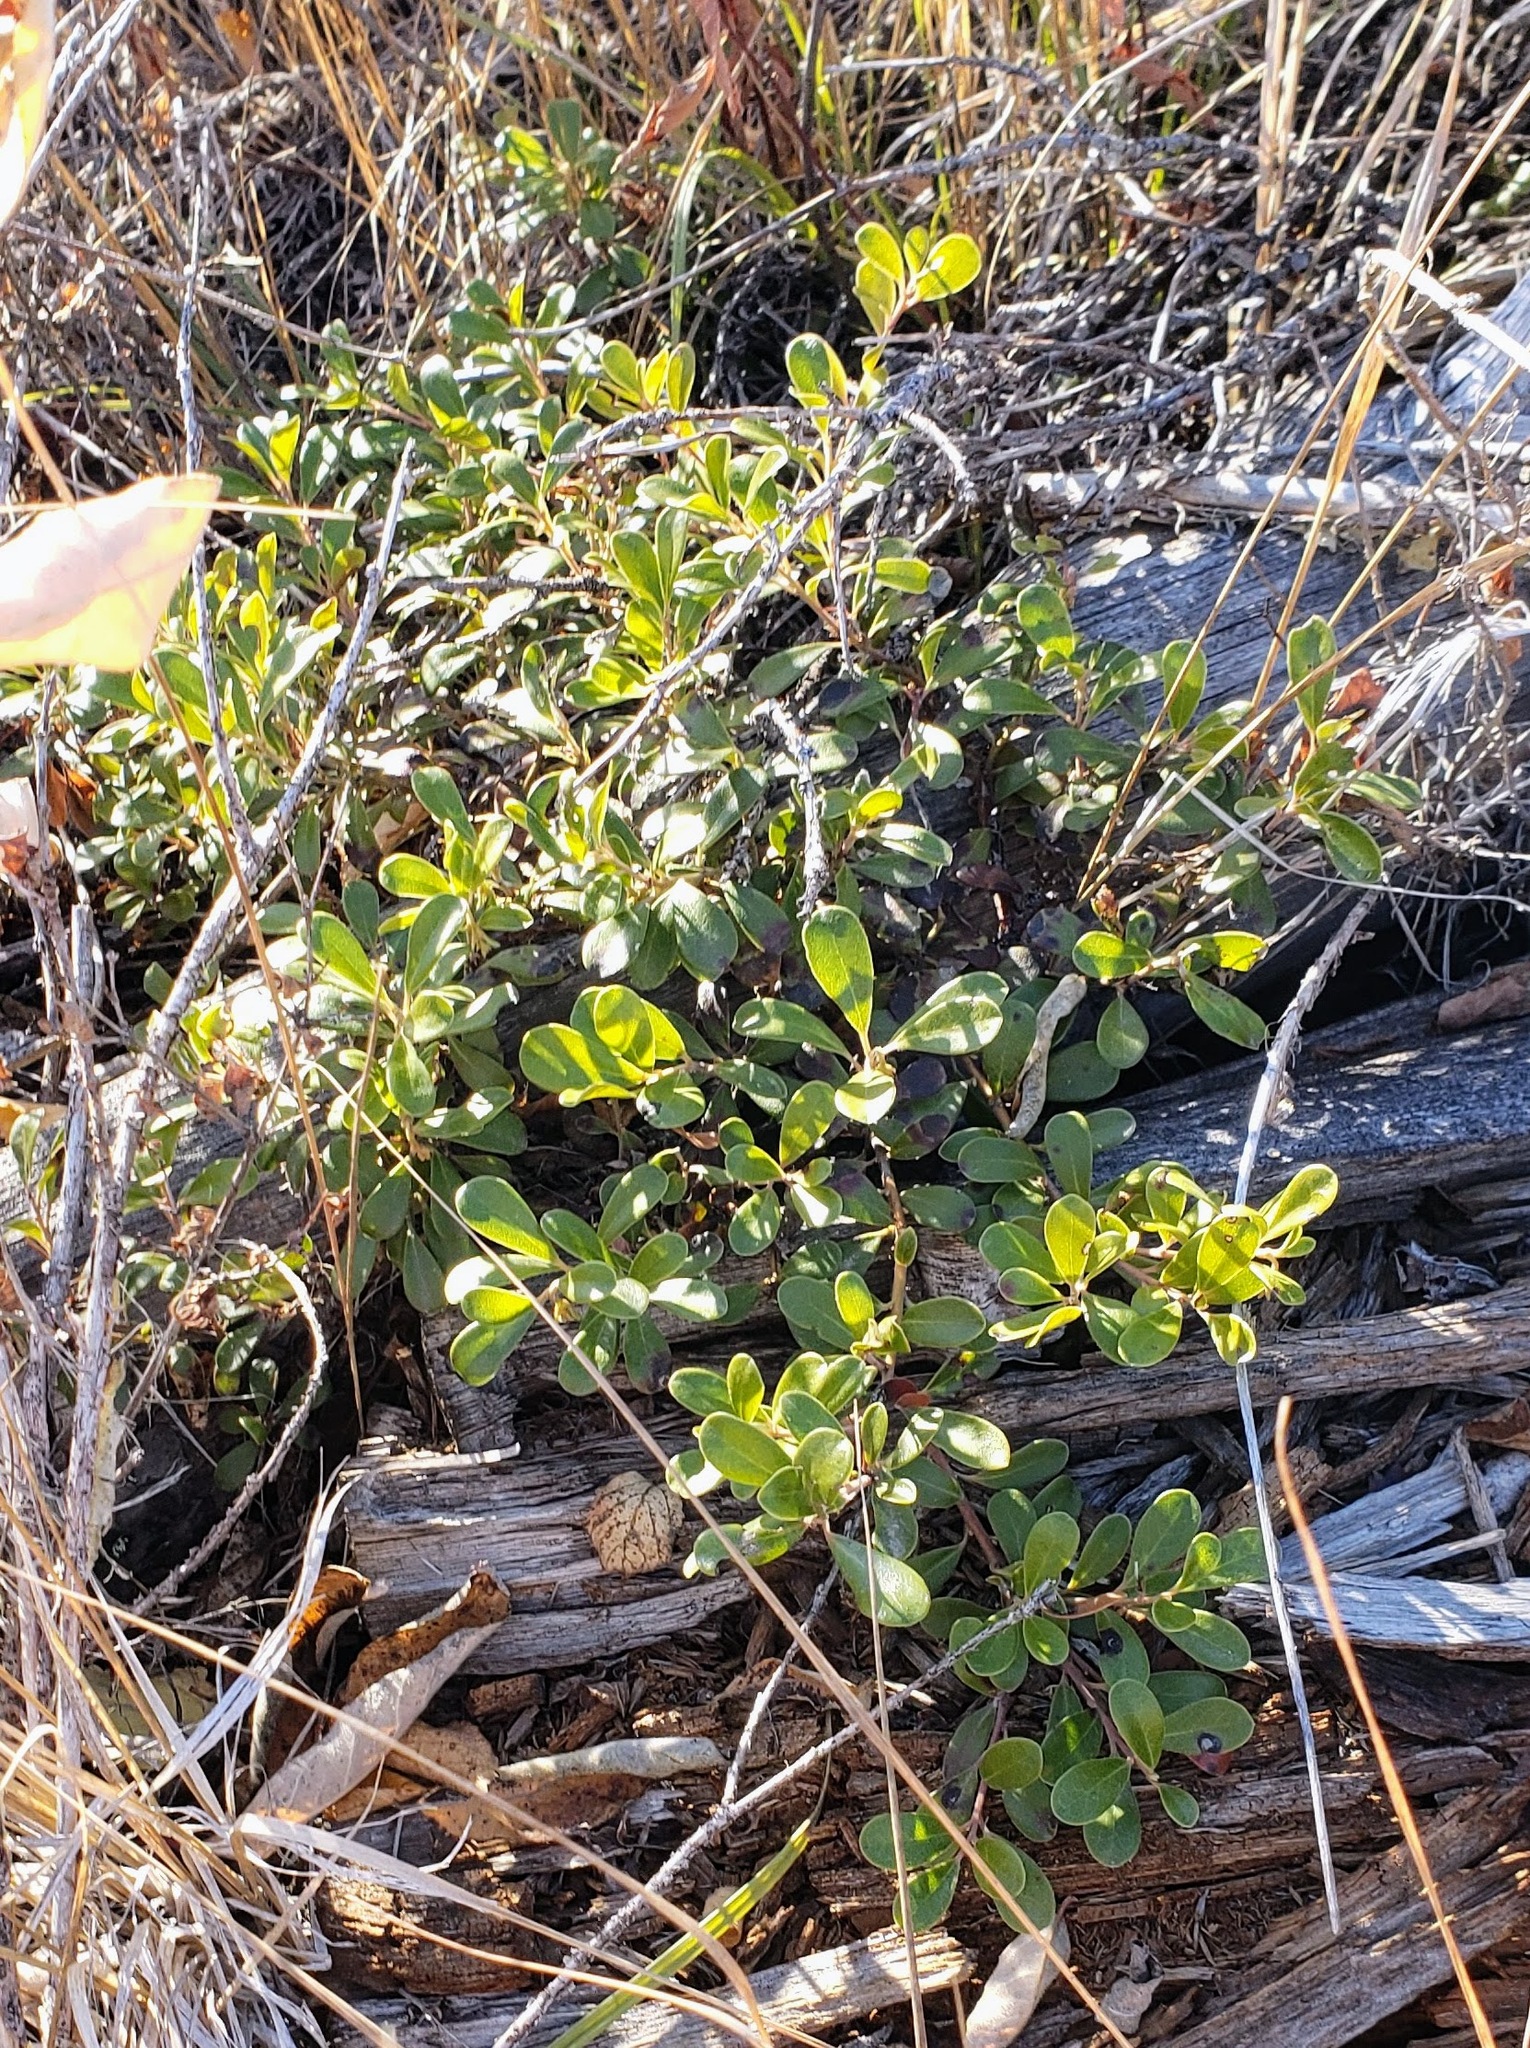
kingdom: Plantae
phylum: Tracheophyta
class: Magnoliopsida
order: Ericales
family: Ericaceae
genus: Arctostaphylos
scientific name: Arctostaphylos uva-ursi
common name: Bearberry
